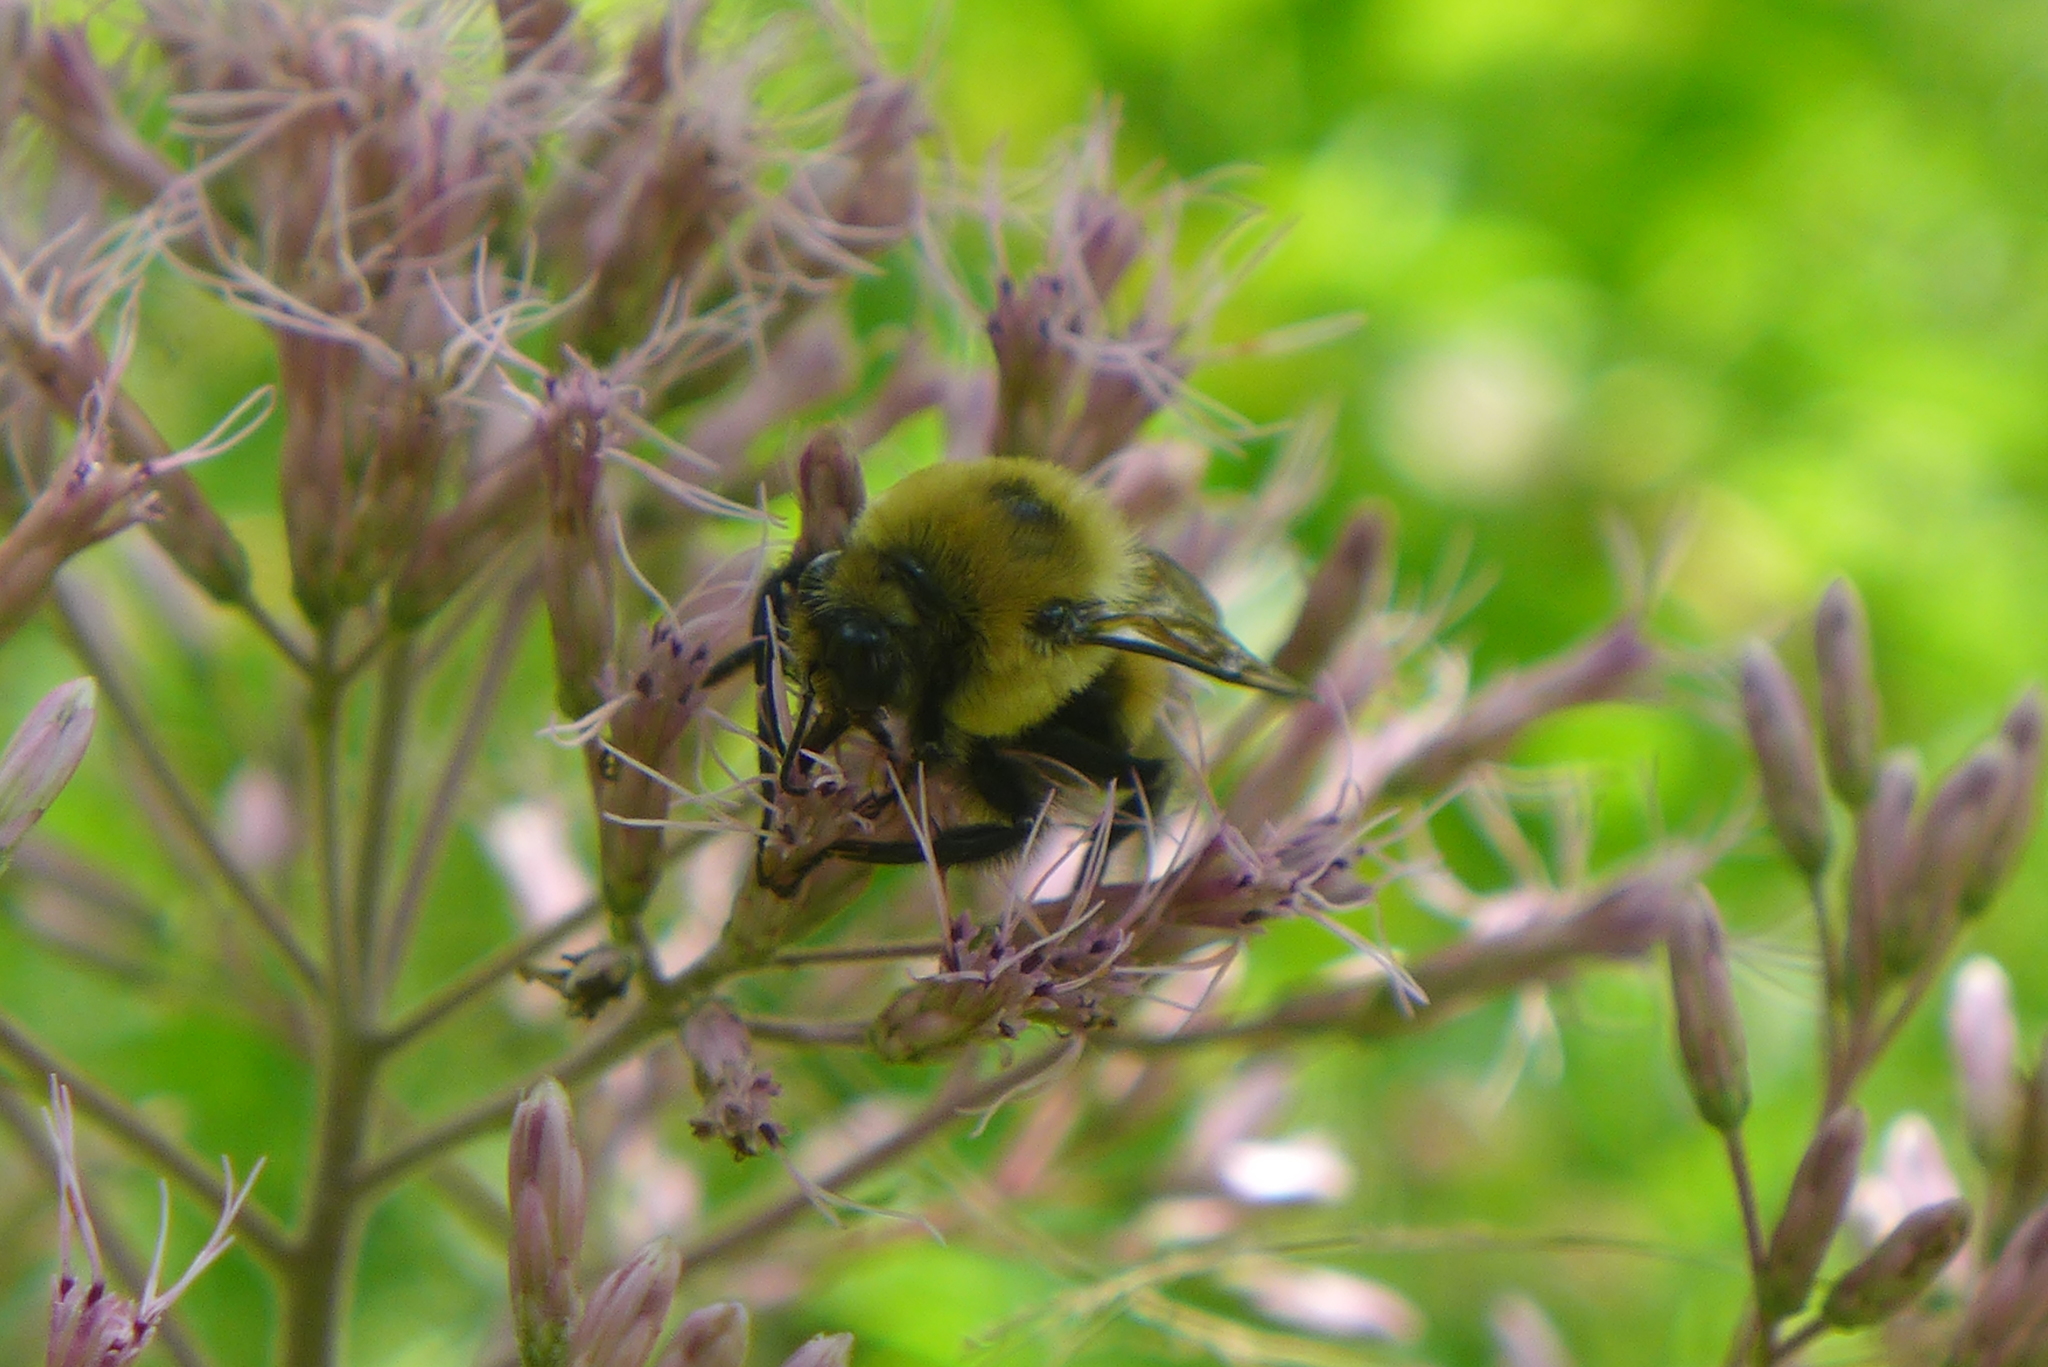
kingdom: Animalia
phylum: Arthropoda
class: Insecta
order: Hymenoptera
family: Apidae
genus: Bombus
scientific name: Bombus griseocollis
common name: Brown-belted bumble bee
